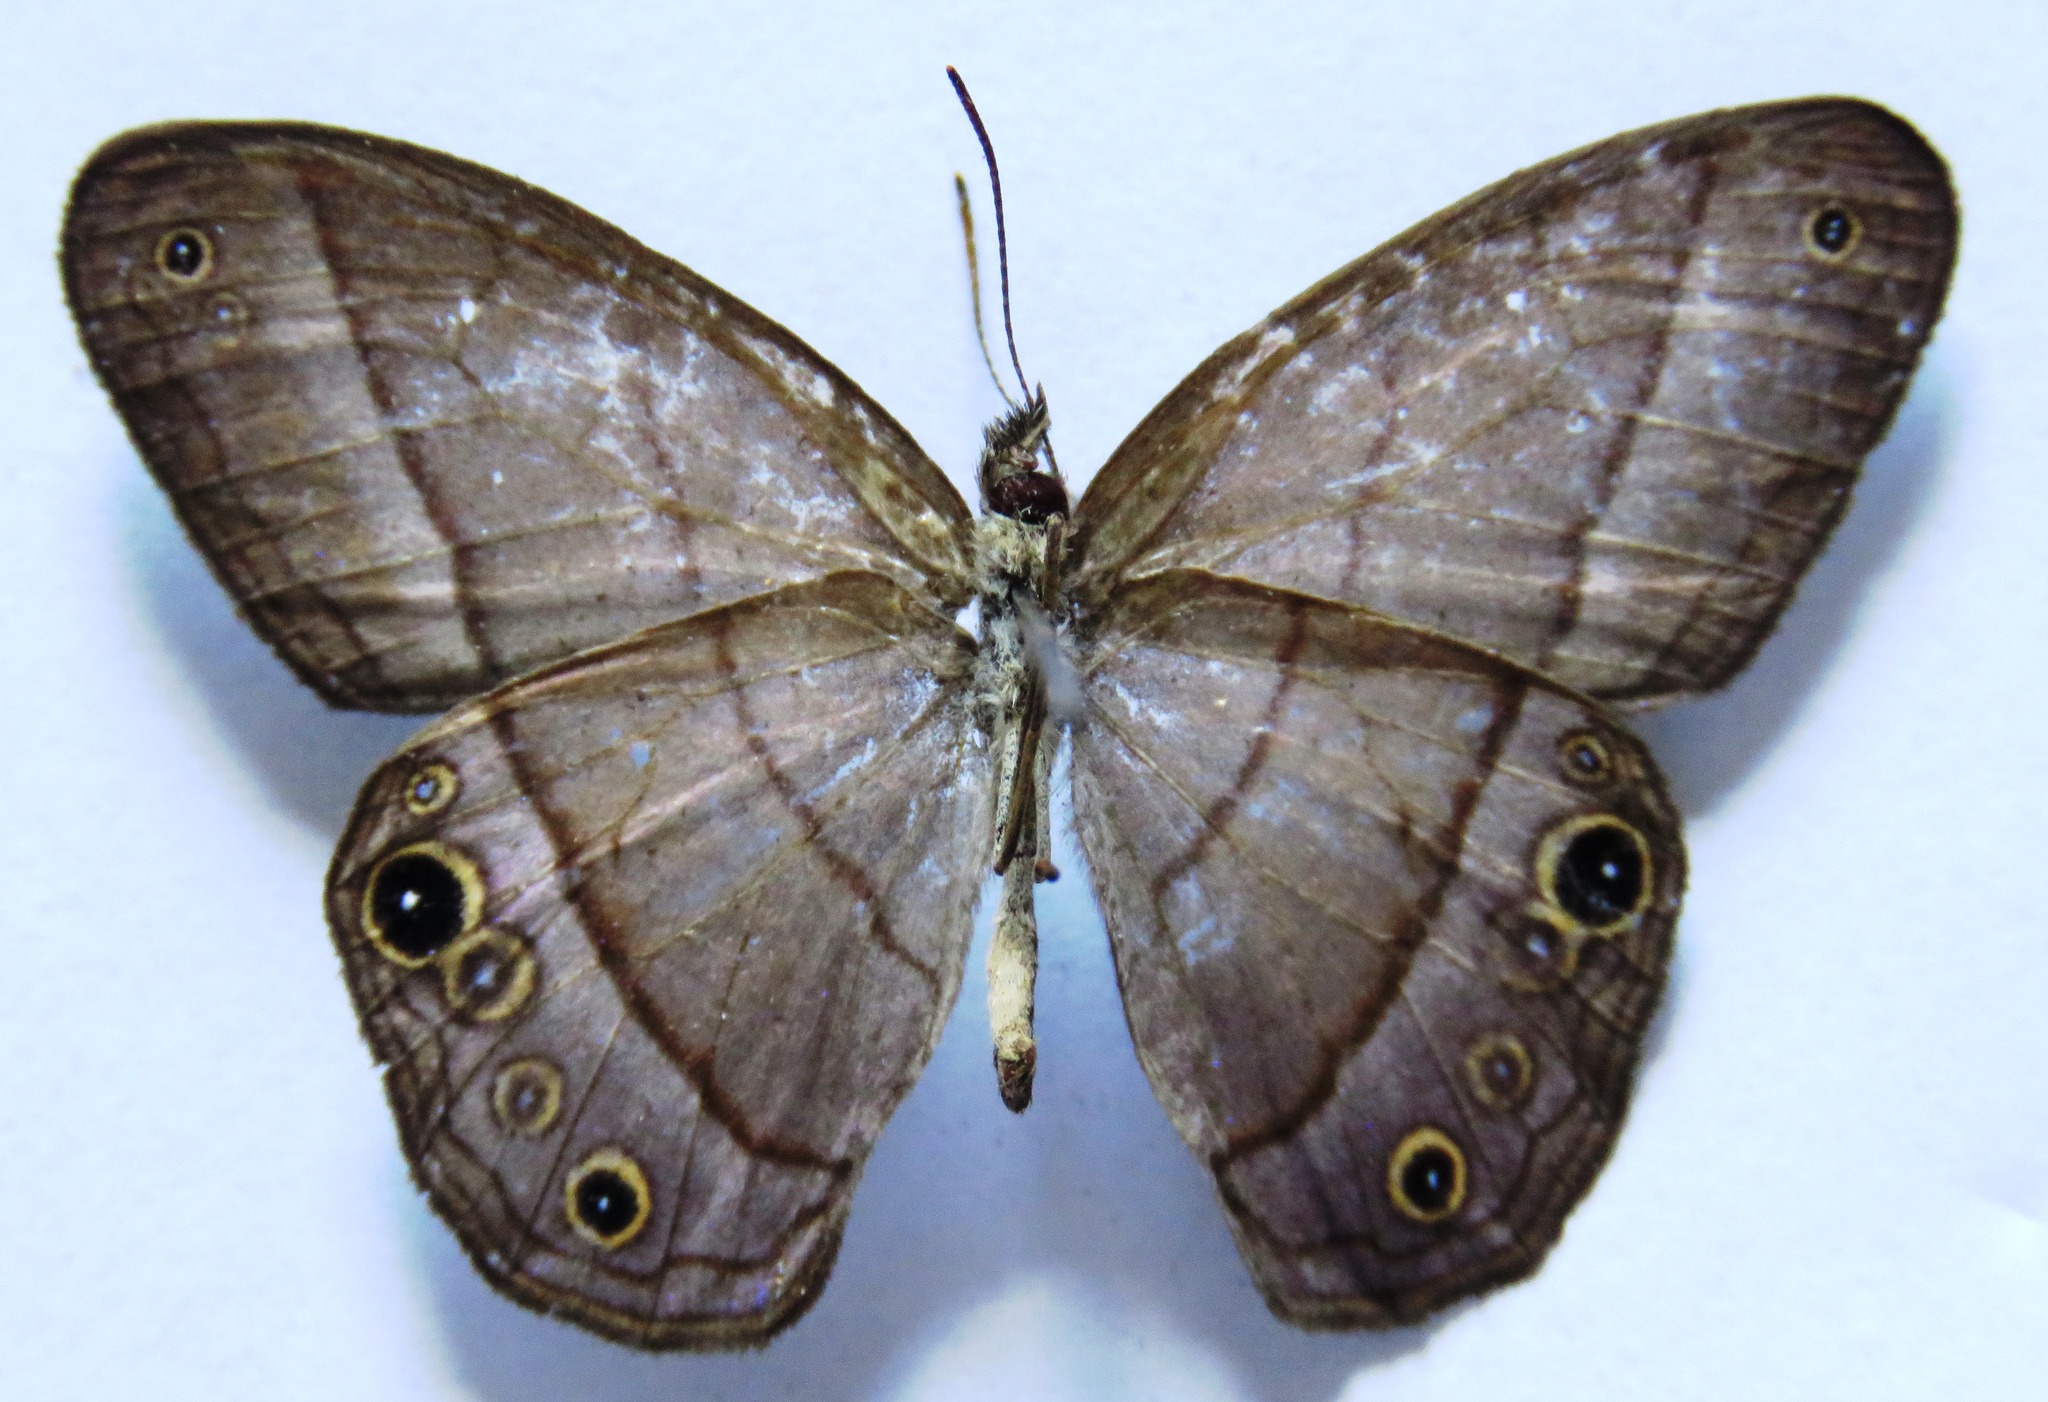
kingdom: Animalia
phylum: Arthropoda
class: Insecta
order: Lepidoptera
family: Nymphalidae
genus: Amiga
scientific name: Amiga arnaca
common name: Blue-topped satyr
